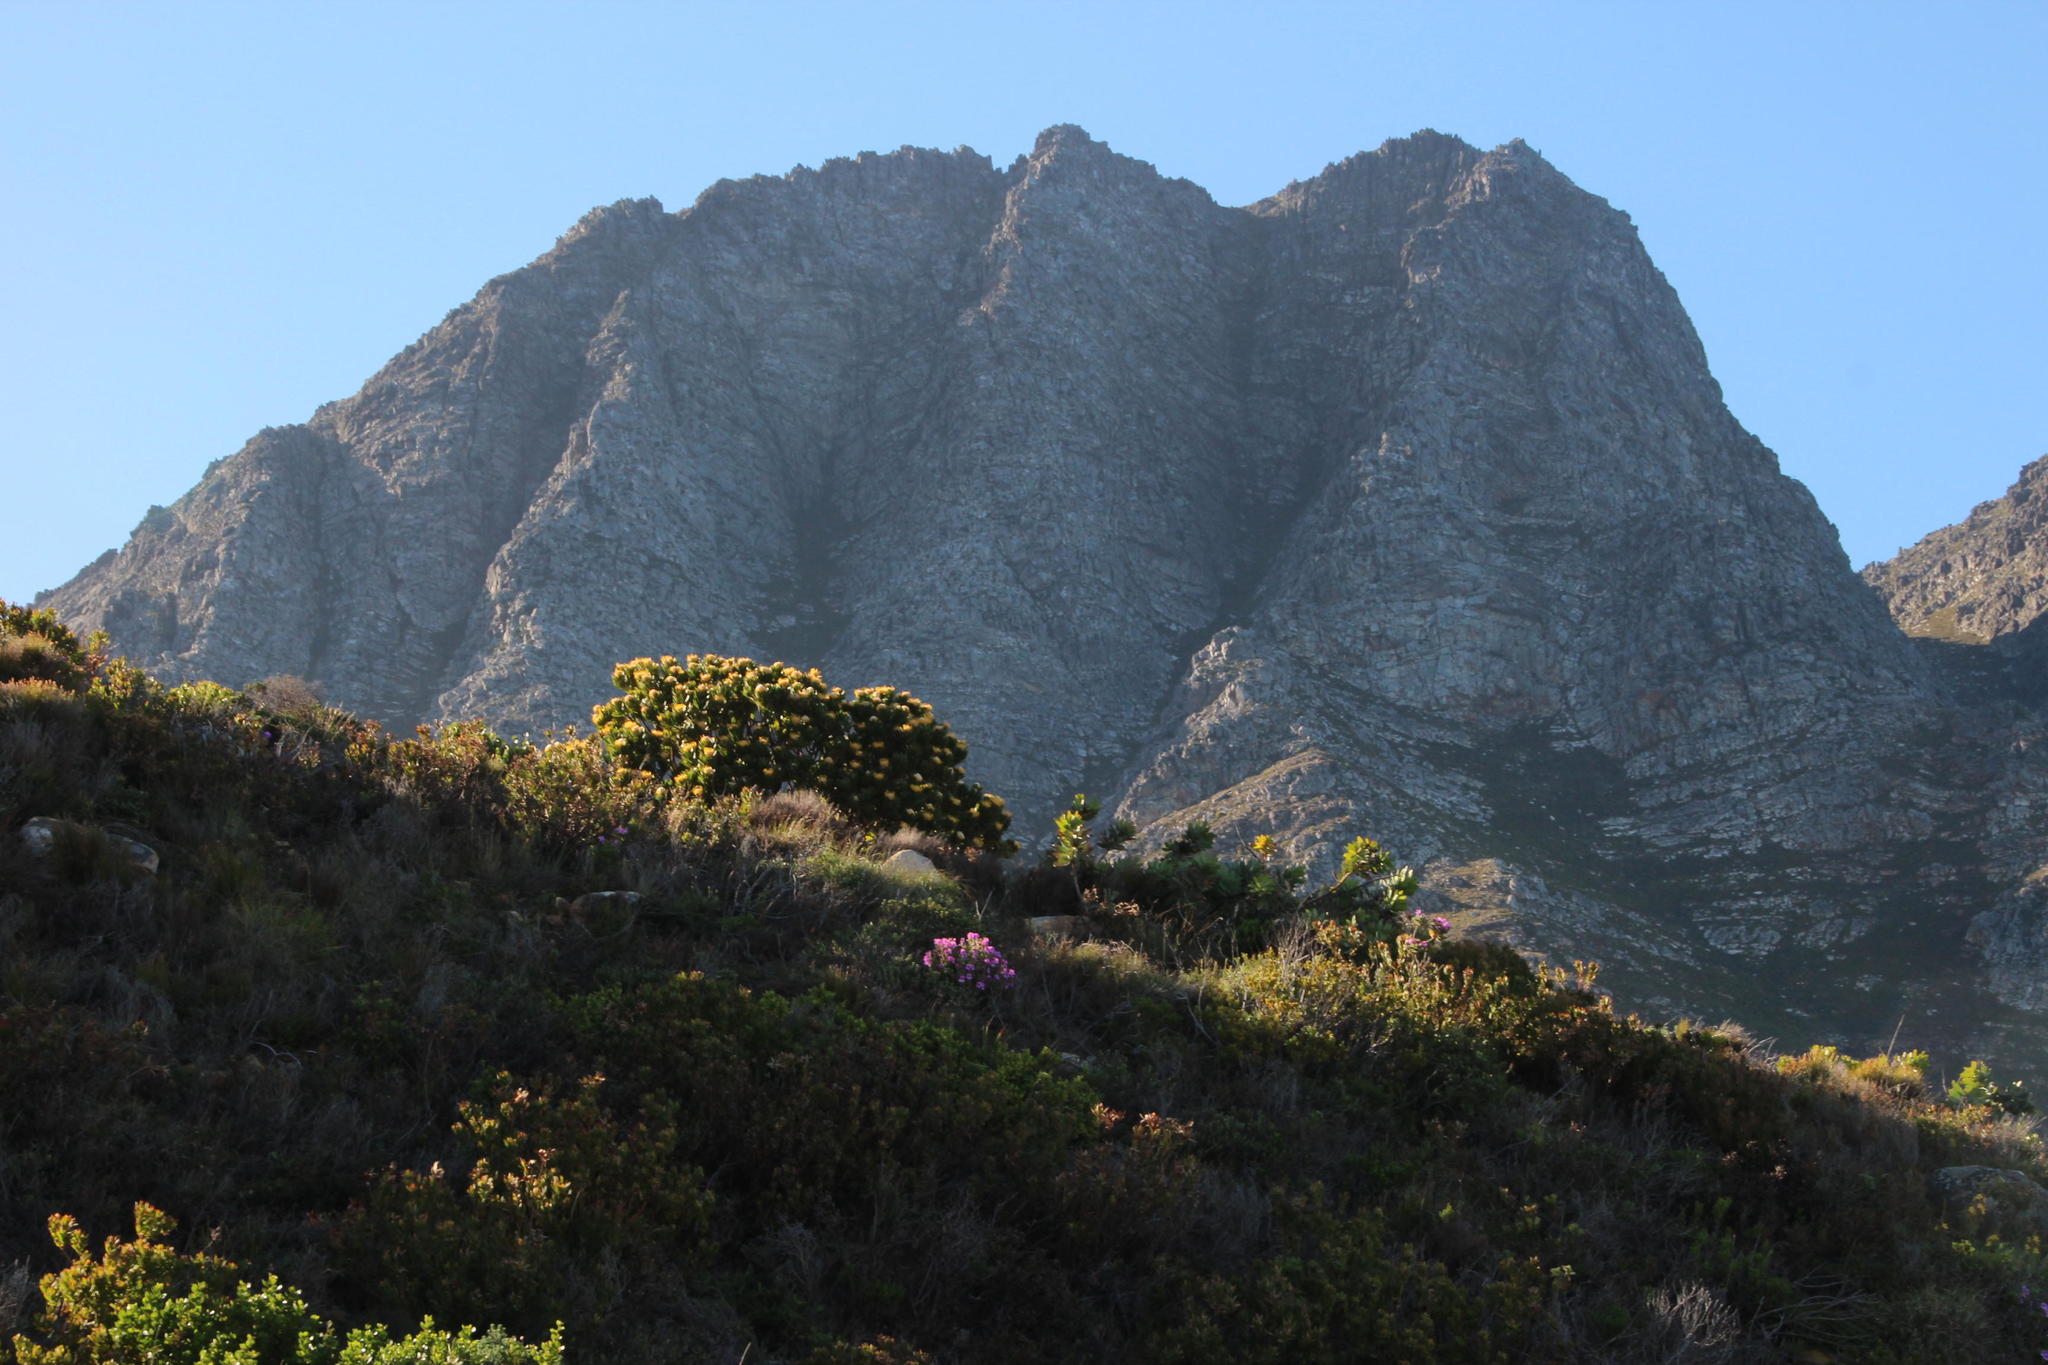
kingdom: Plantae
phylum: Tracheophyta
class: Magnoliopsida
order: Proteales
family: Proteaceae
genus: Leucospermum
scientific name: Leucospermum conocarpodendron
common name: Tree pincushion
